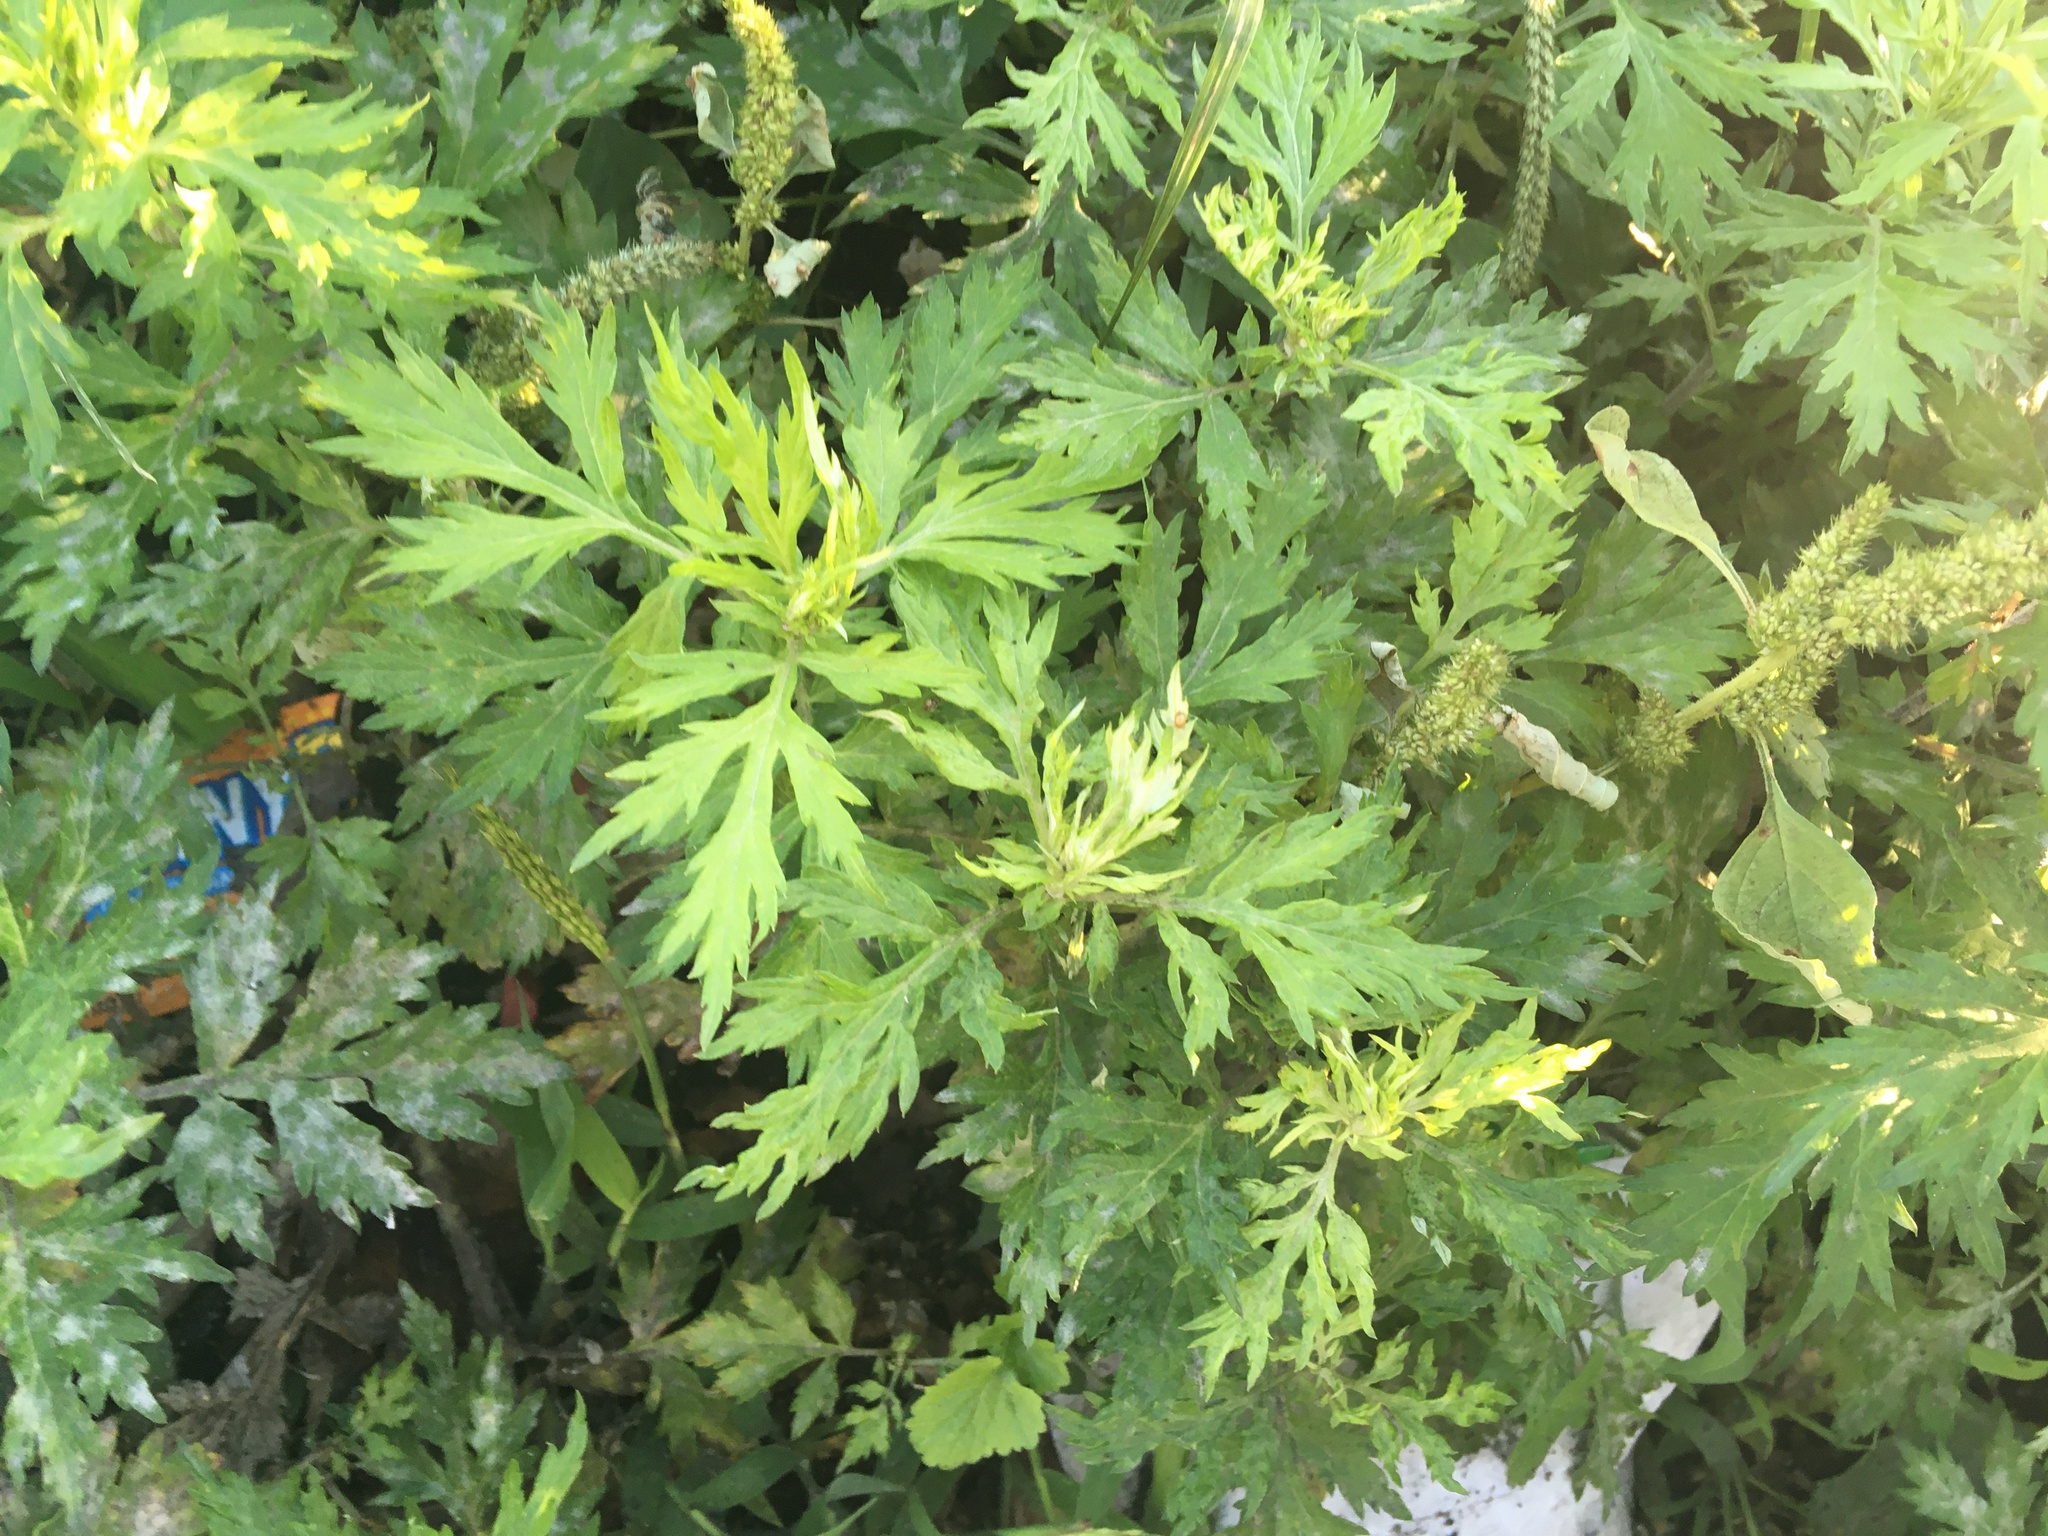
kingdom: Plantae
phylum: Tracheophyta
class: Magnoliopsida
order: Asterales
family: Asteraceae
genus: Artemisia
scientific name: Artemisia vulgaris
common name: Mugwort
